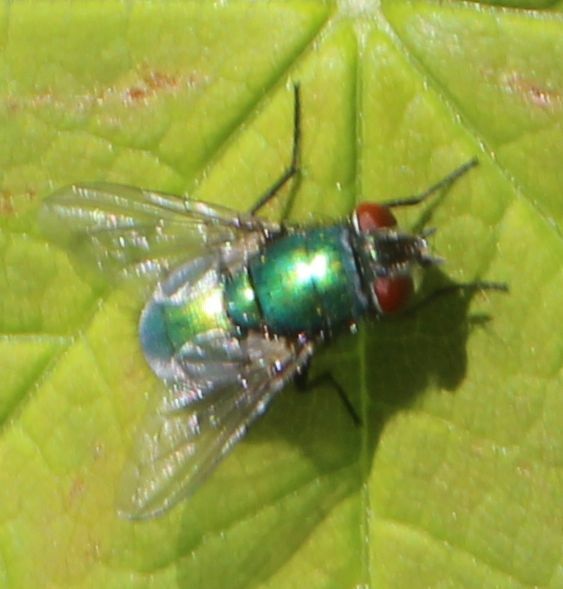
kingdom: Animalia
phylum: Arthropoda
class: Insecta
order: Diptera
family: Calliphoridae
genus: Lucilia
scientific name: Lucilia
